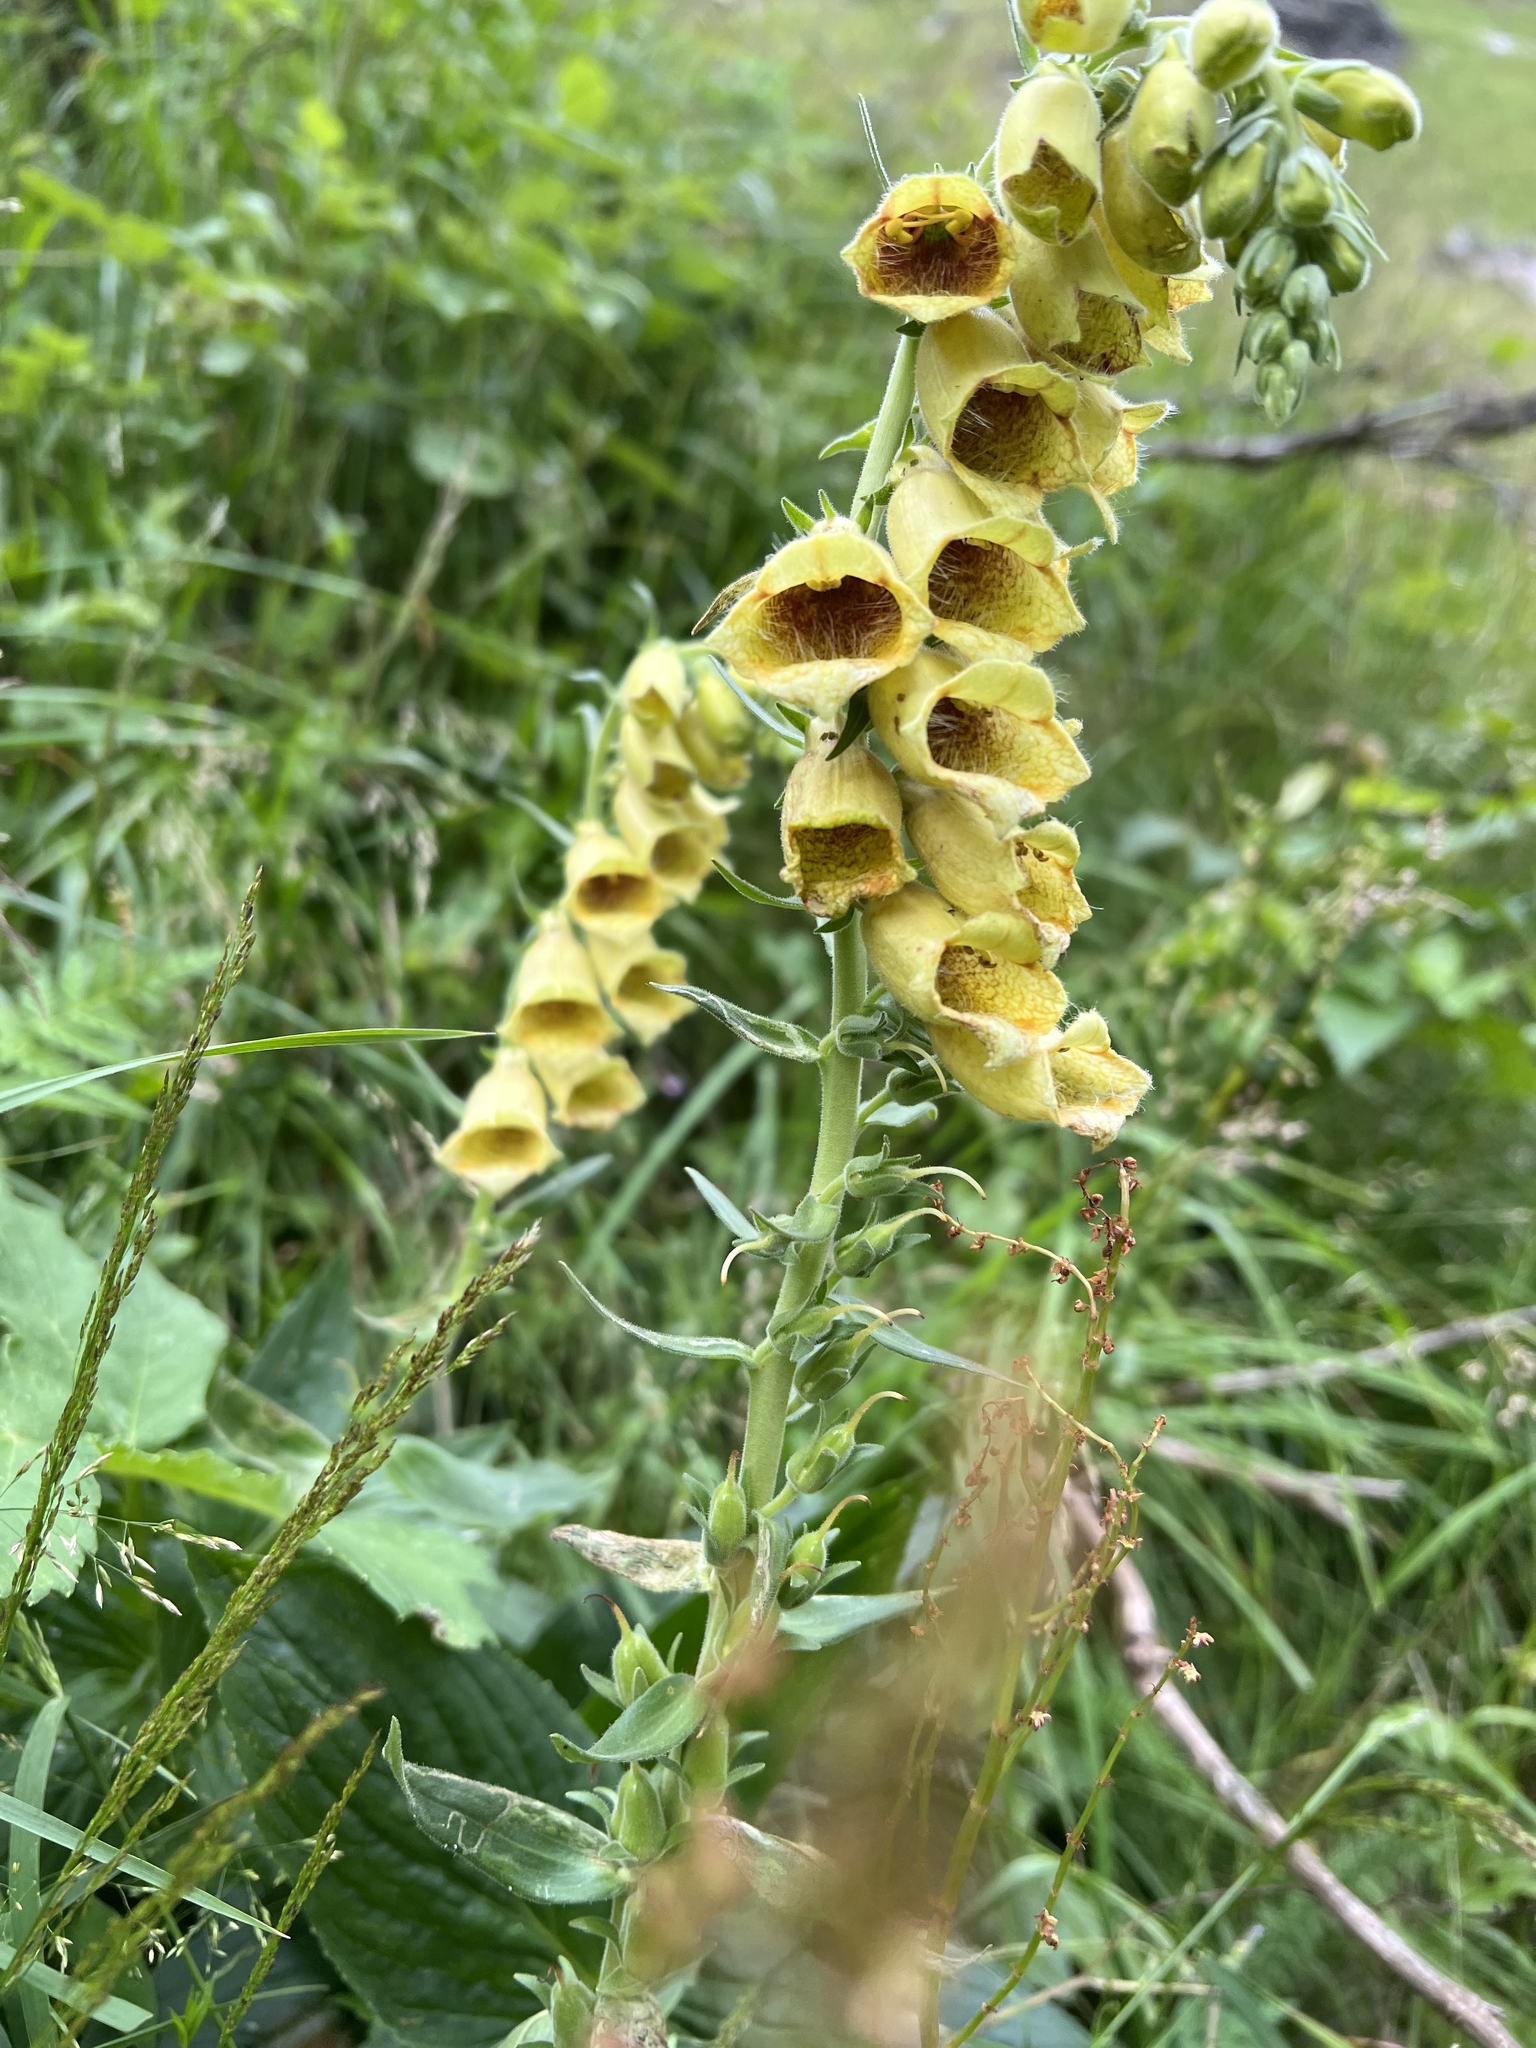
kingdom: Plantae
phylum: Tracheophyta
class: Magnoliopsida
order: Lamiales
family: Plantaginaceae
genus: Digitalis
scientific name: Digitalis grandiflora
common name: Yellow foxglove
